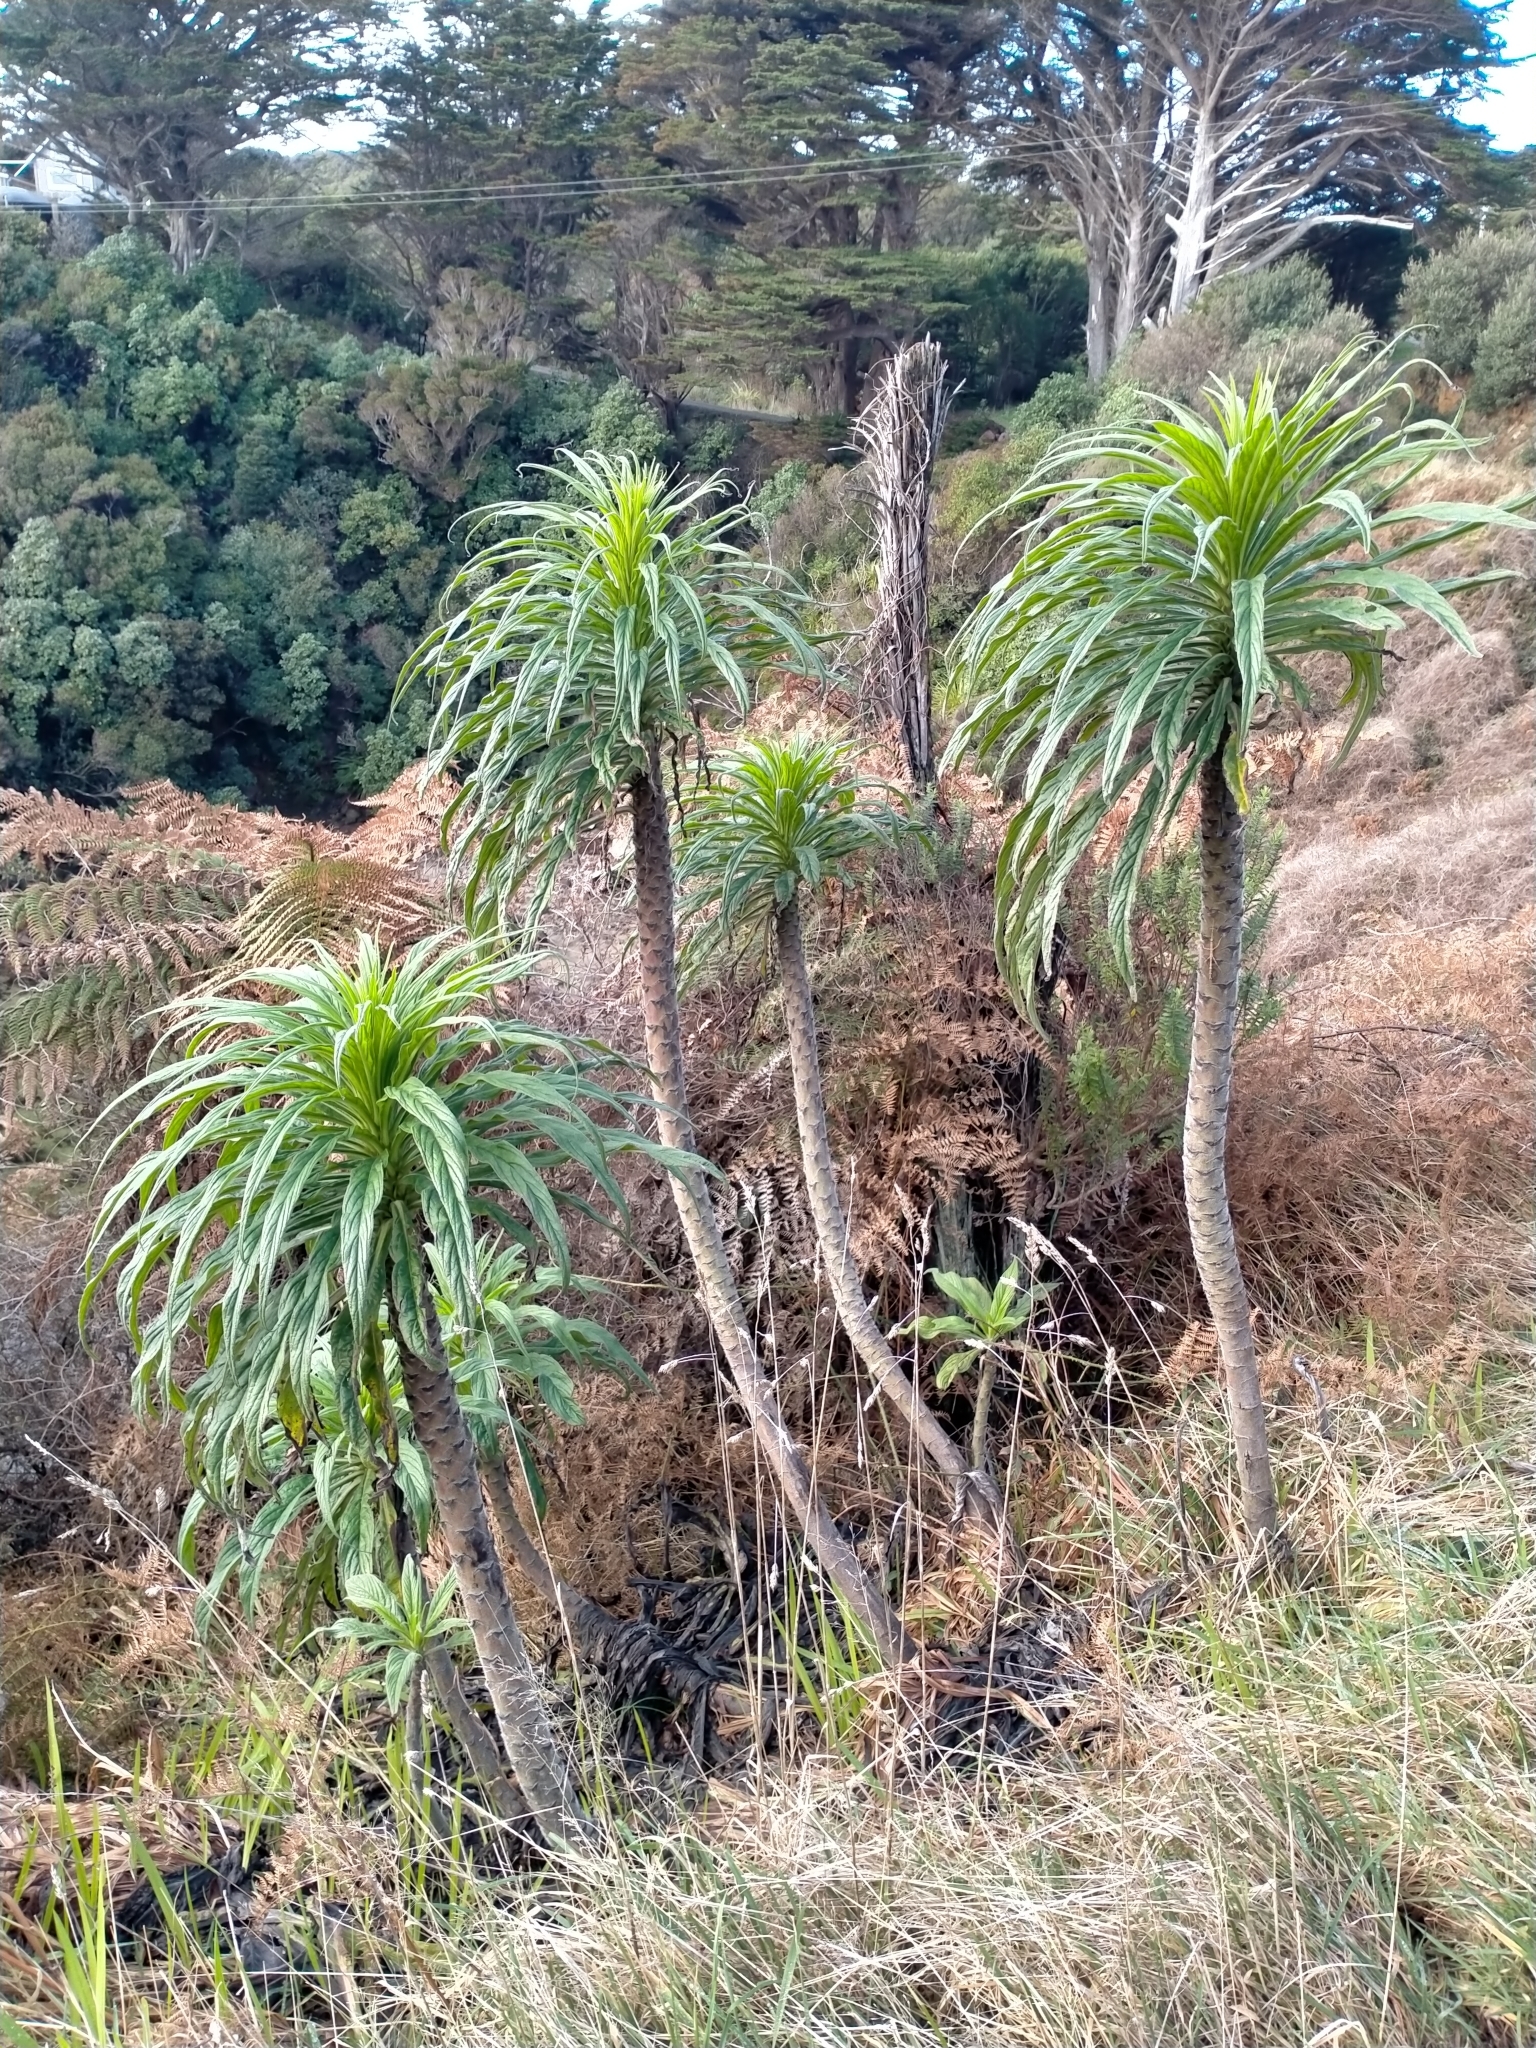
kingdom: Plantae
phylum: Tracheophyta
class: Magnoliopsida
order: Boraginales
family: Boraginaceae
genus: Echium
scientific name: Echium pininana
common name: Giant viper's-bugloss
